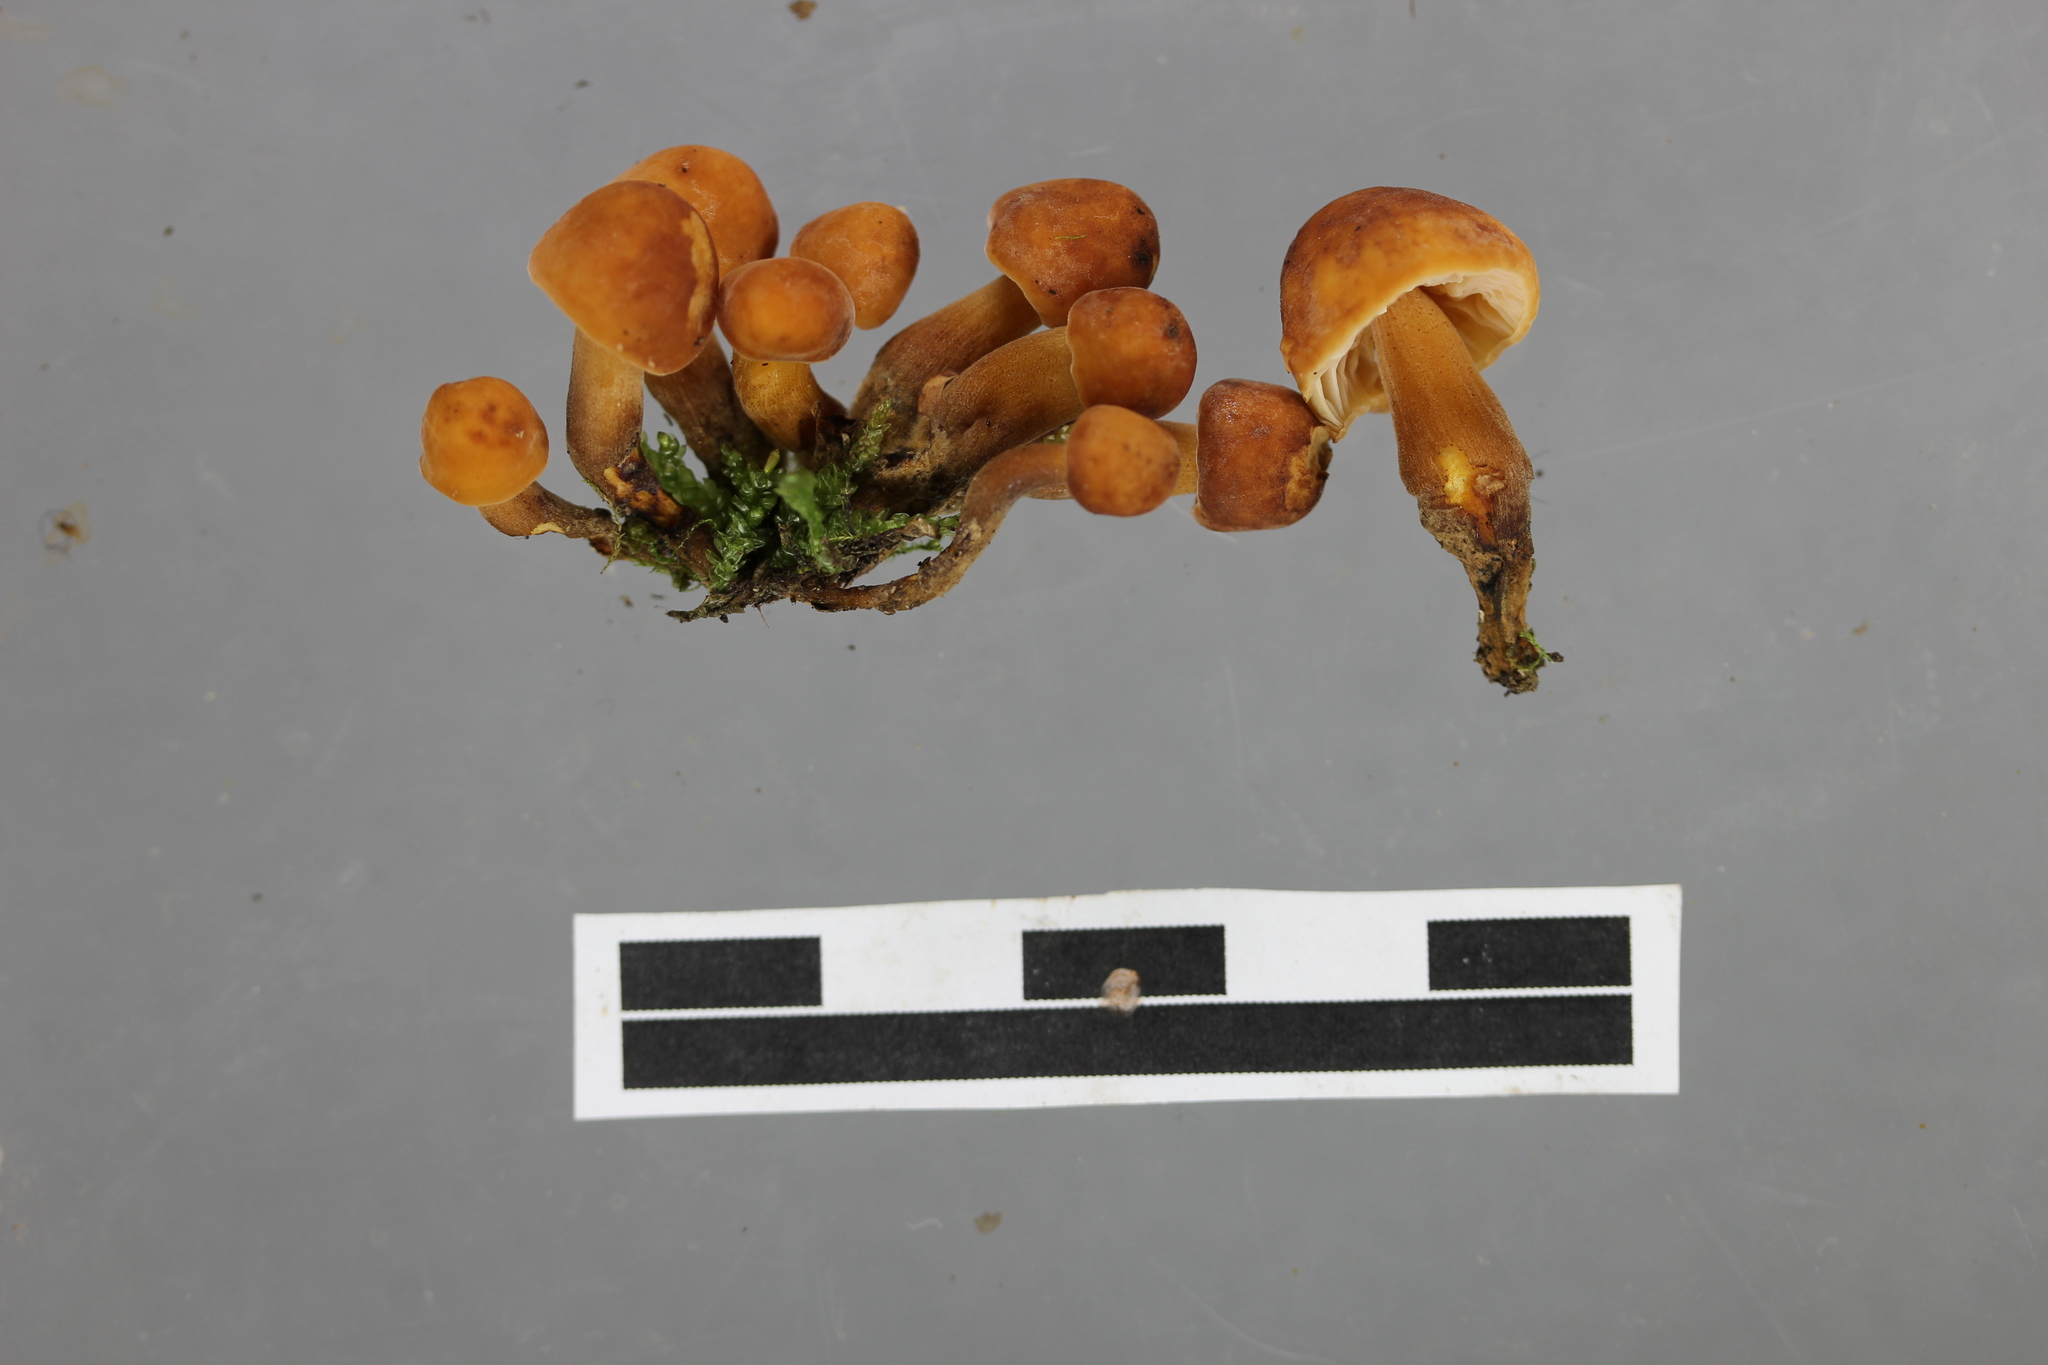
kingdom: Fungi
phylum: Basidiomycota
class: Agaricomycetes
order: Agaricales
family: Physalacriaceae
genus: Flammulina
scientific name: Flammulina velutipes
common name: Velvet shank
